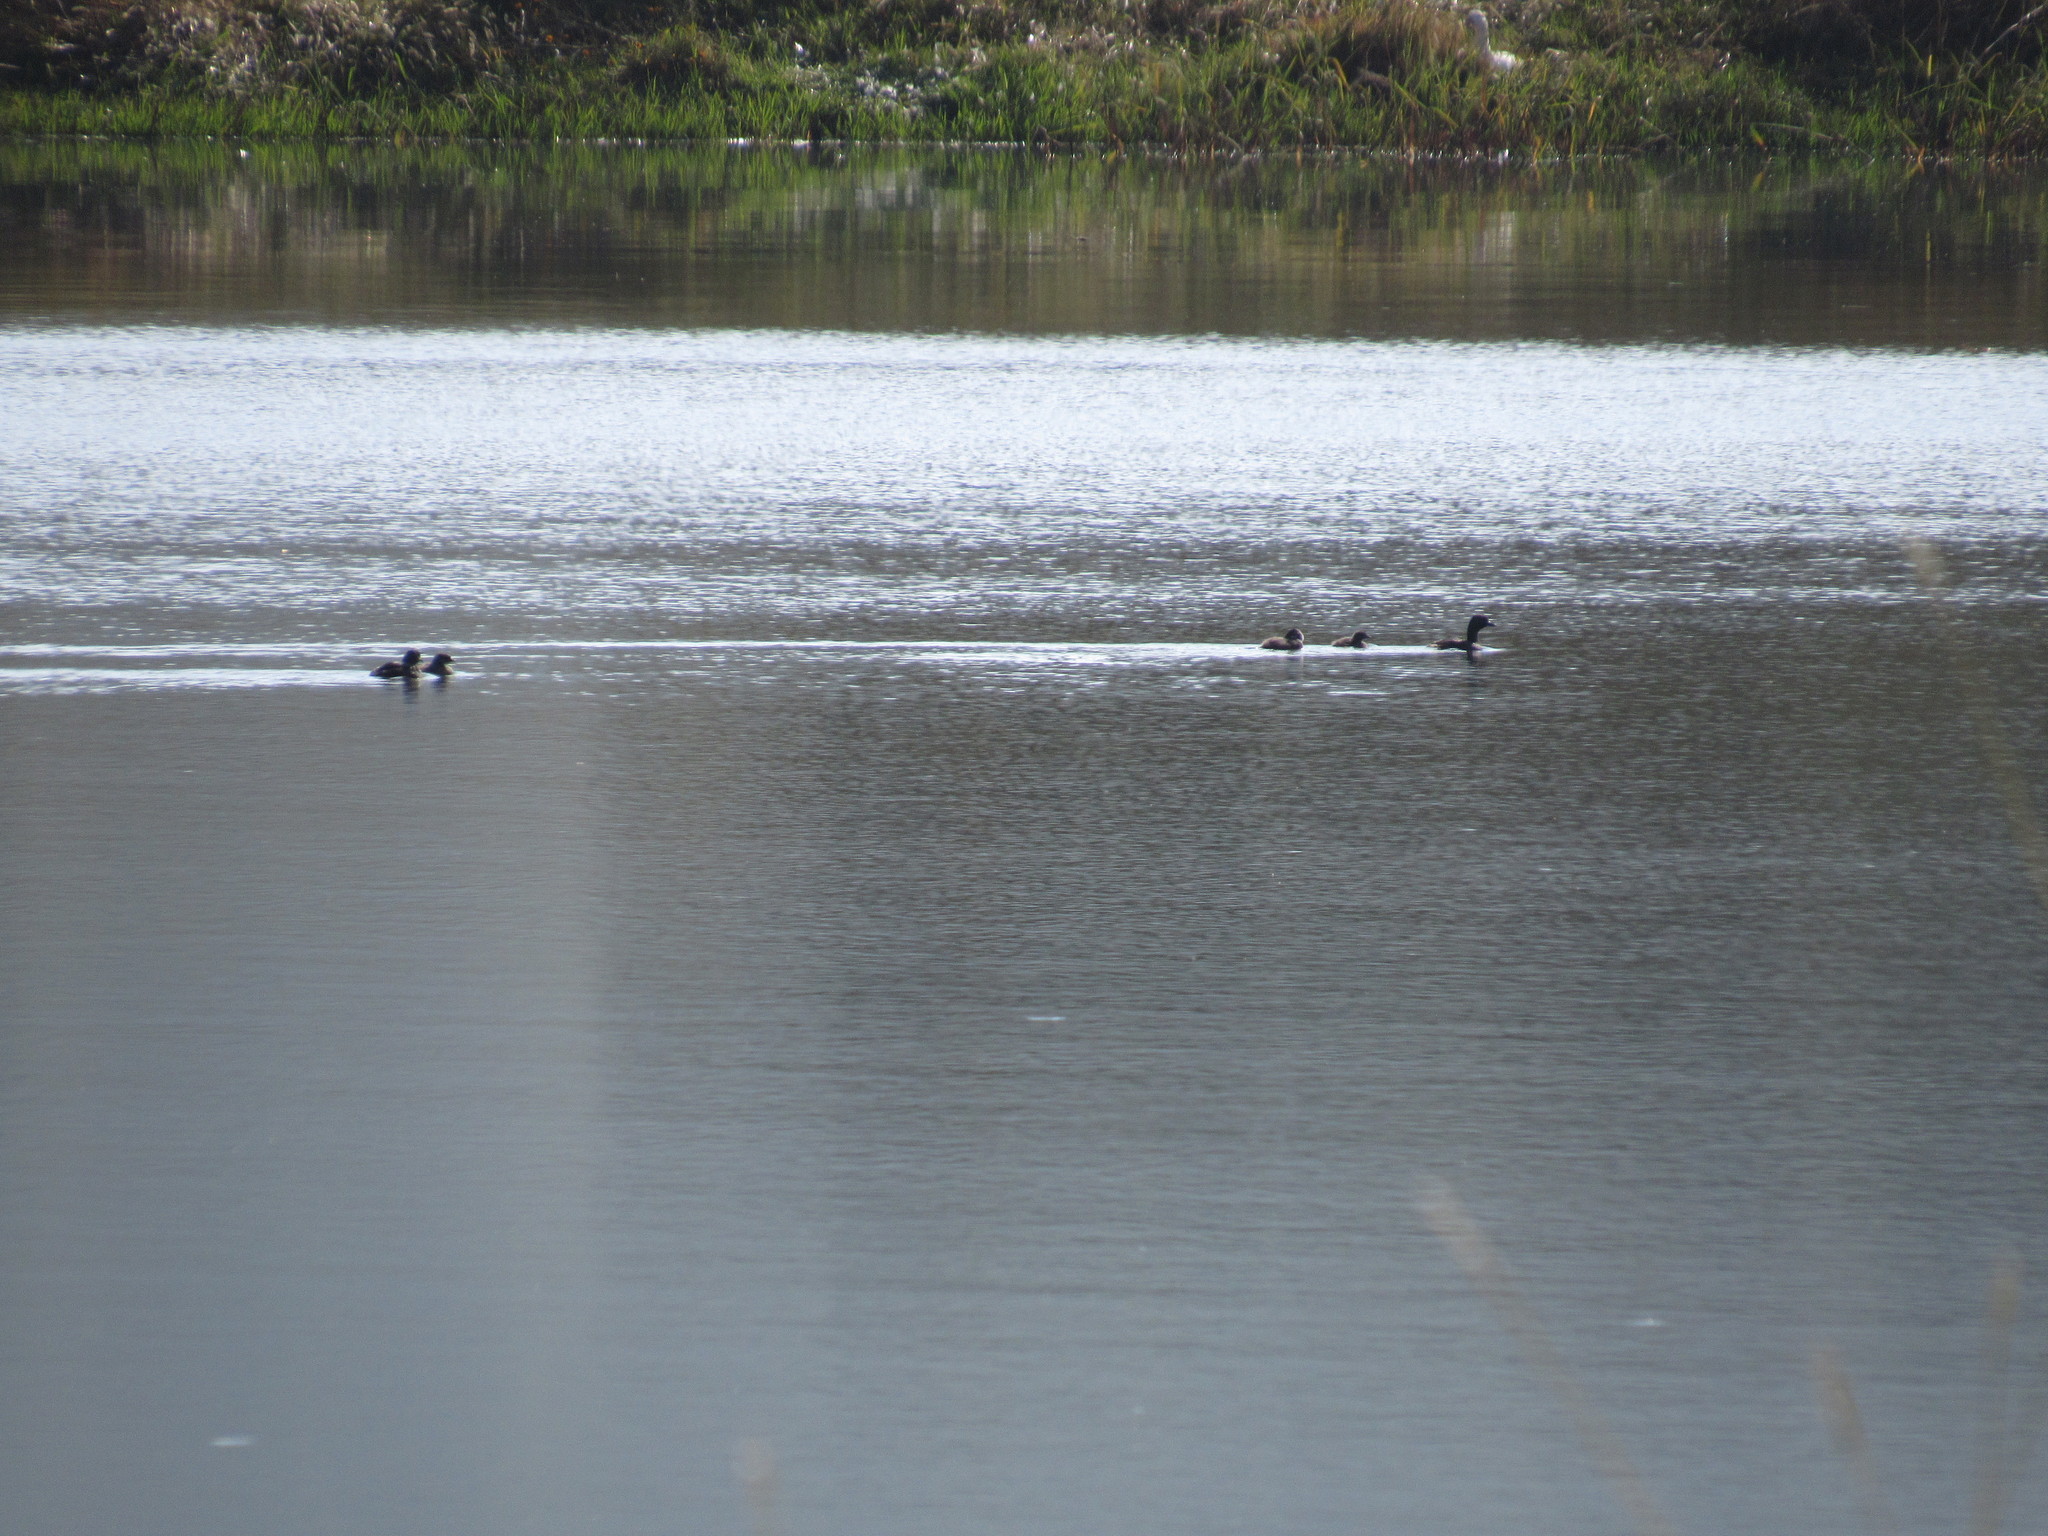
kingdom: Animalia
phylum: Chordata
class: Aves
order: Podicipediformes
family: Podicipedidae
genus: Tachybaptus
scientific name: Tachybaptus dominicus
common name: Least grebe
